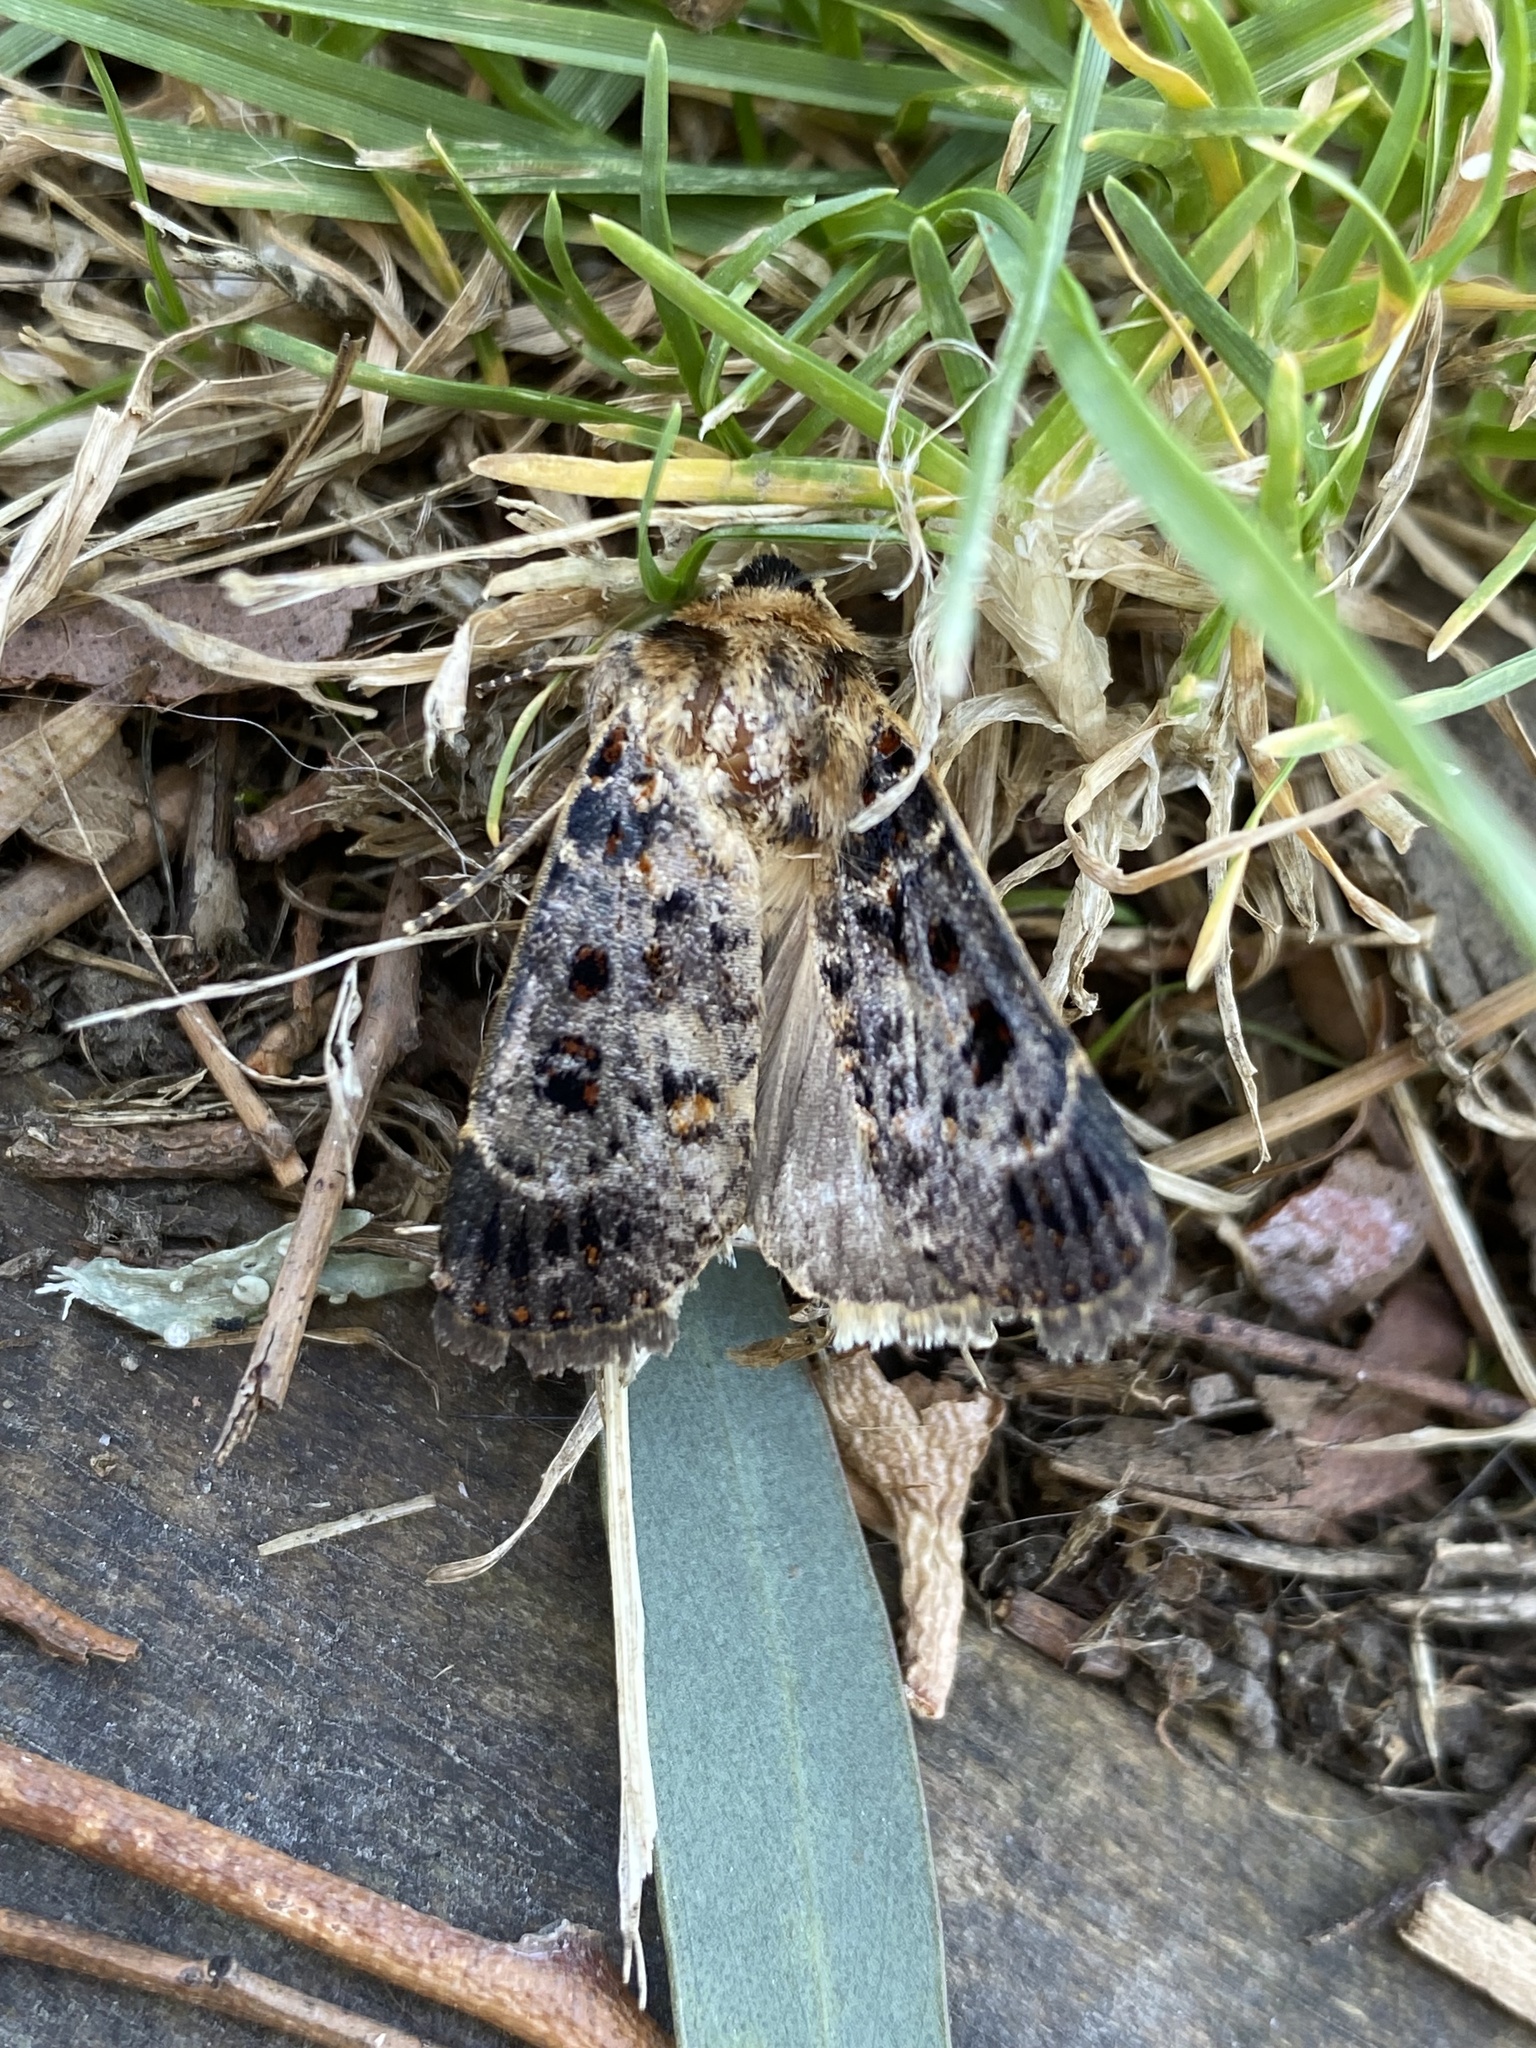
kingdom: Animalia
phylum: Arthropoda
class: Insecta
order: Lepidoptera
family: Noctuidae
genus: Proteuxoa
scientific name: Proteuxoa sanguinipuncta
